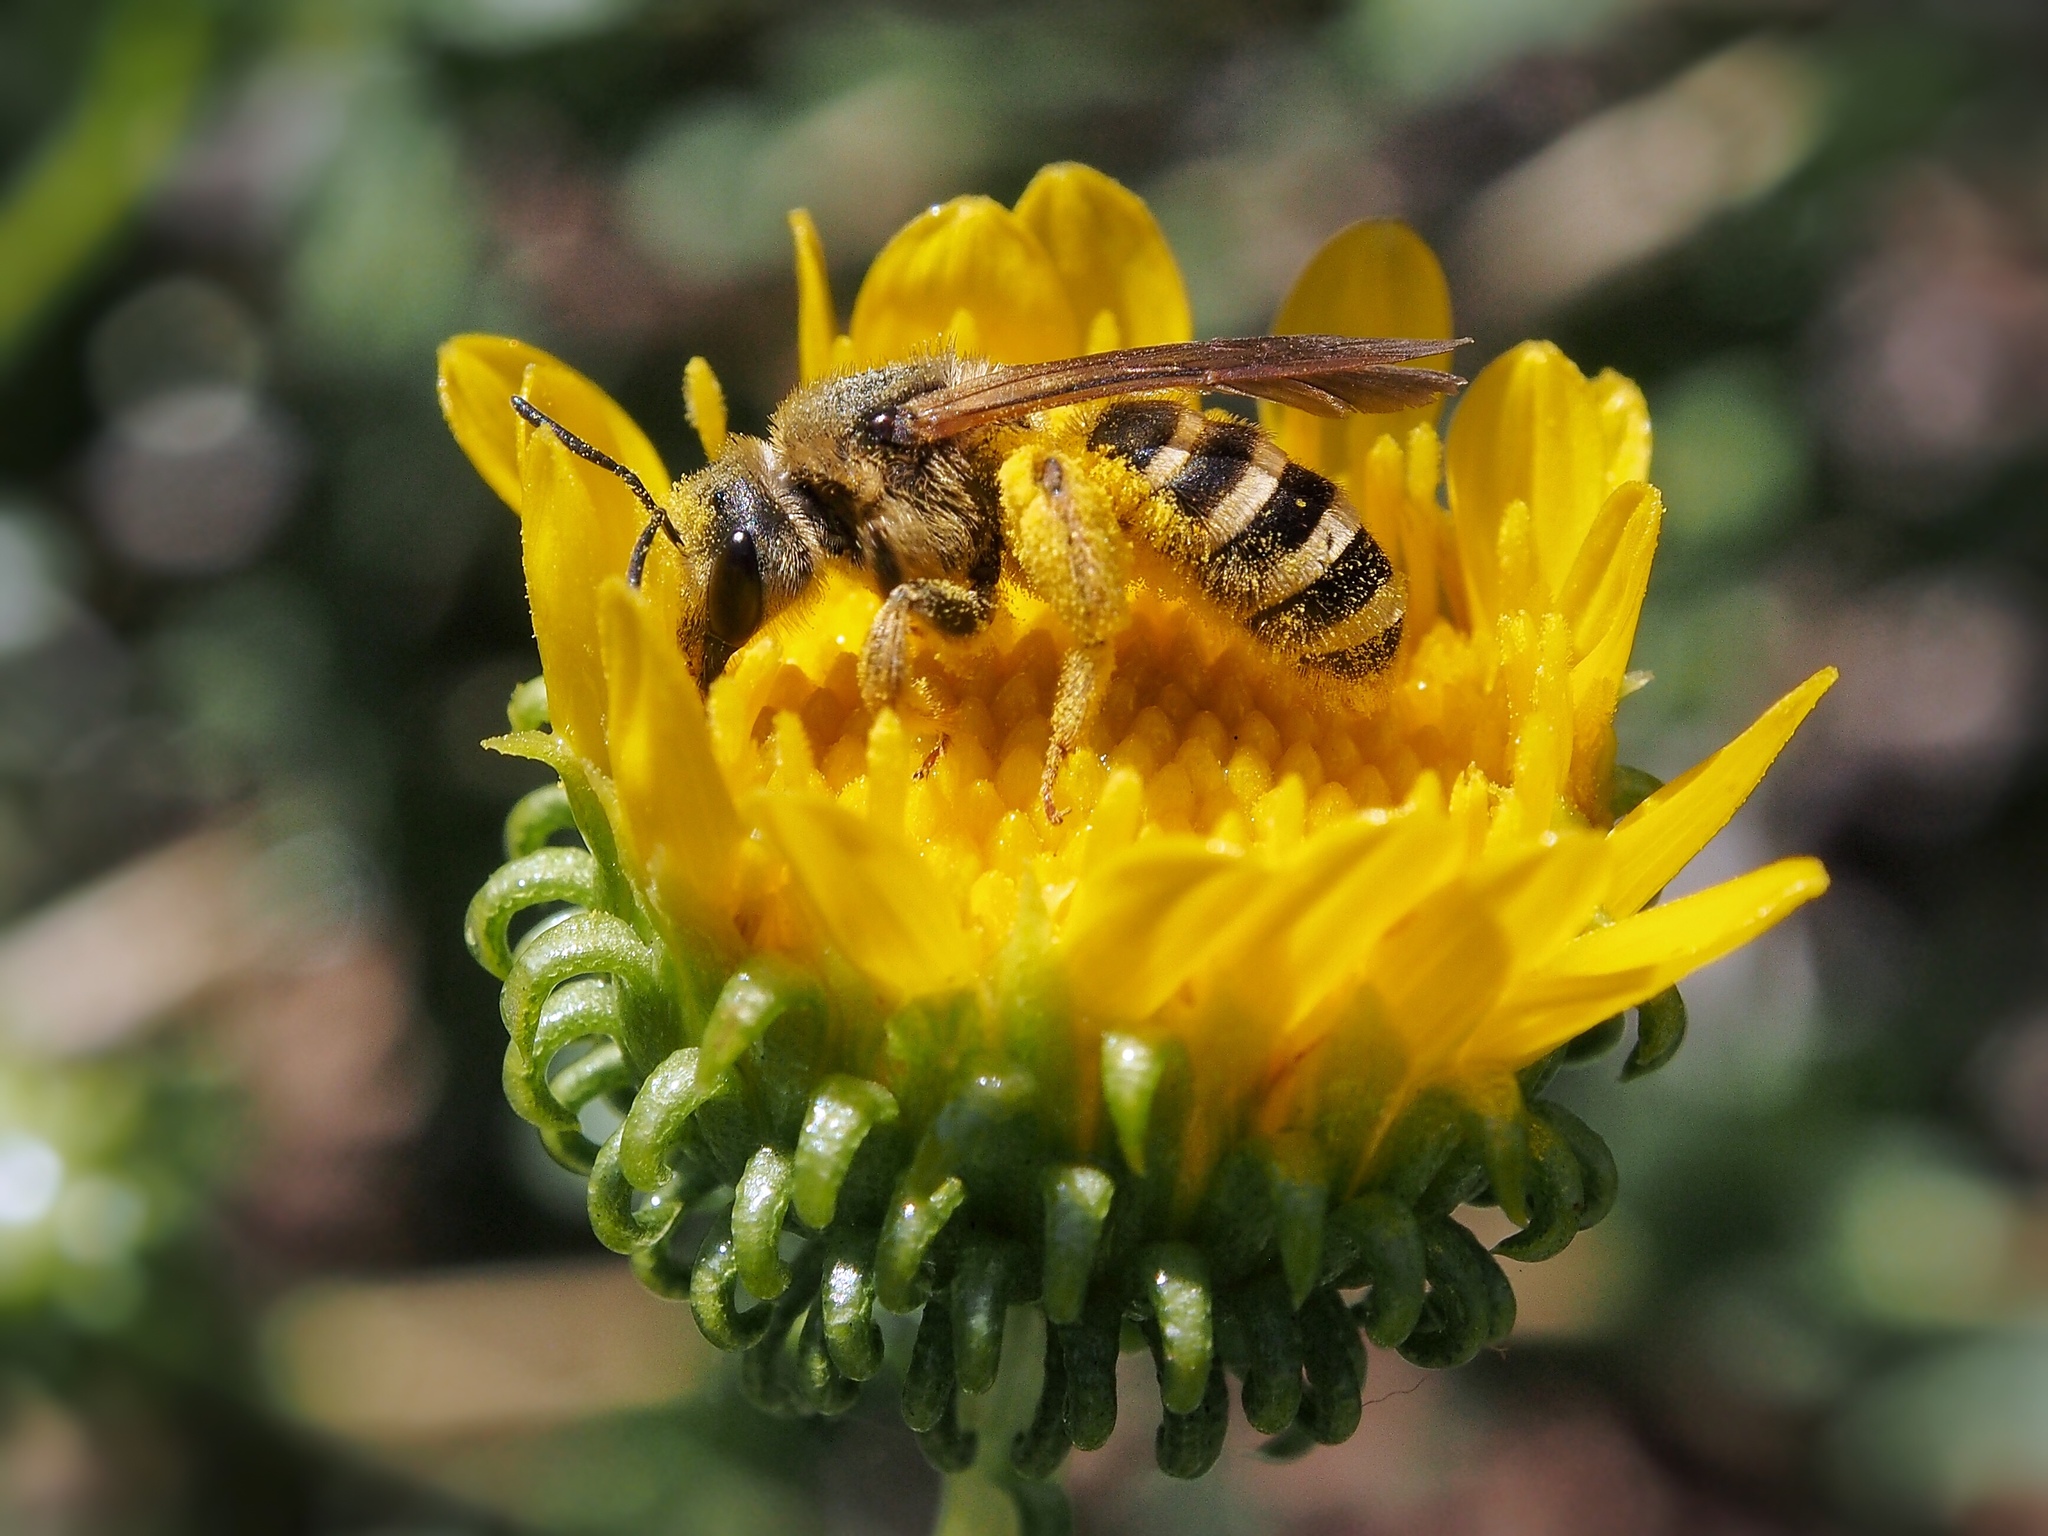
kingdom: Animalia
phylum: Arthropoda
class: Insecta
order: Hymenoptera
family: Halictidae
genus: Halictus
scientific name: Halictus farinosus
